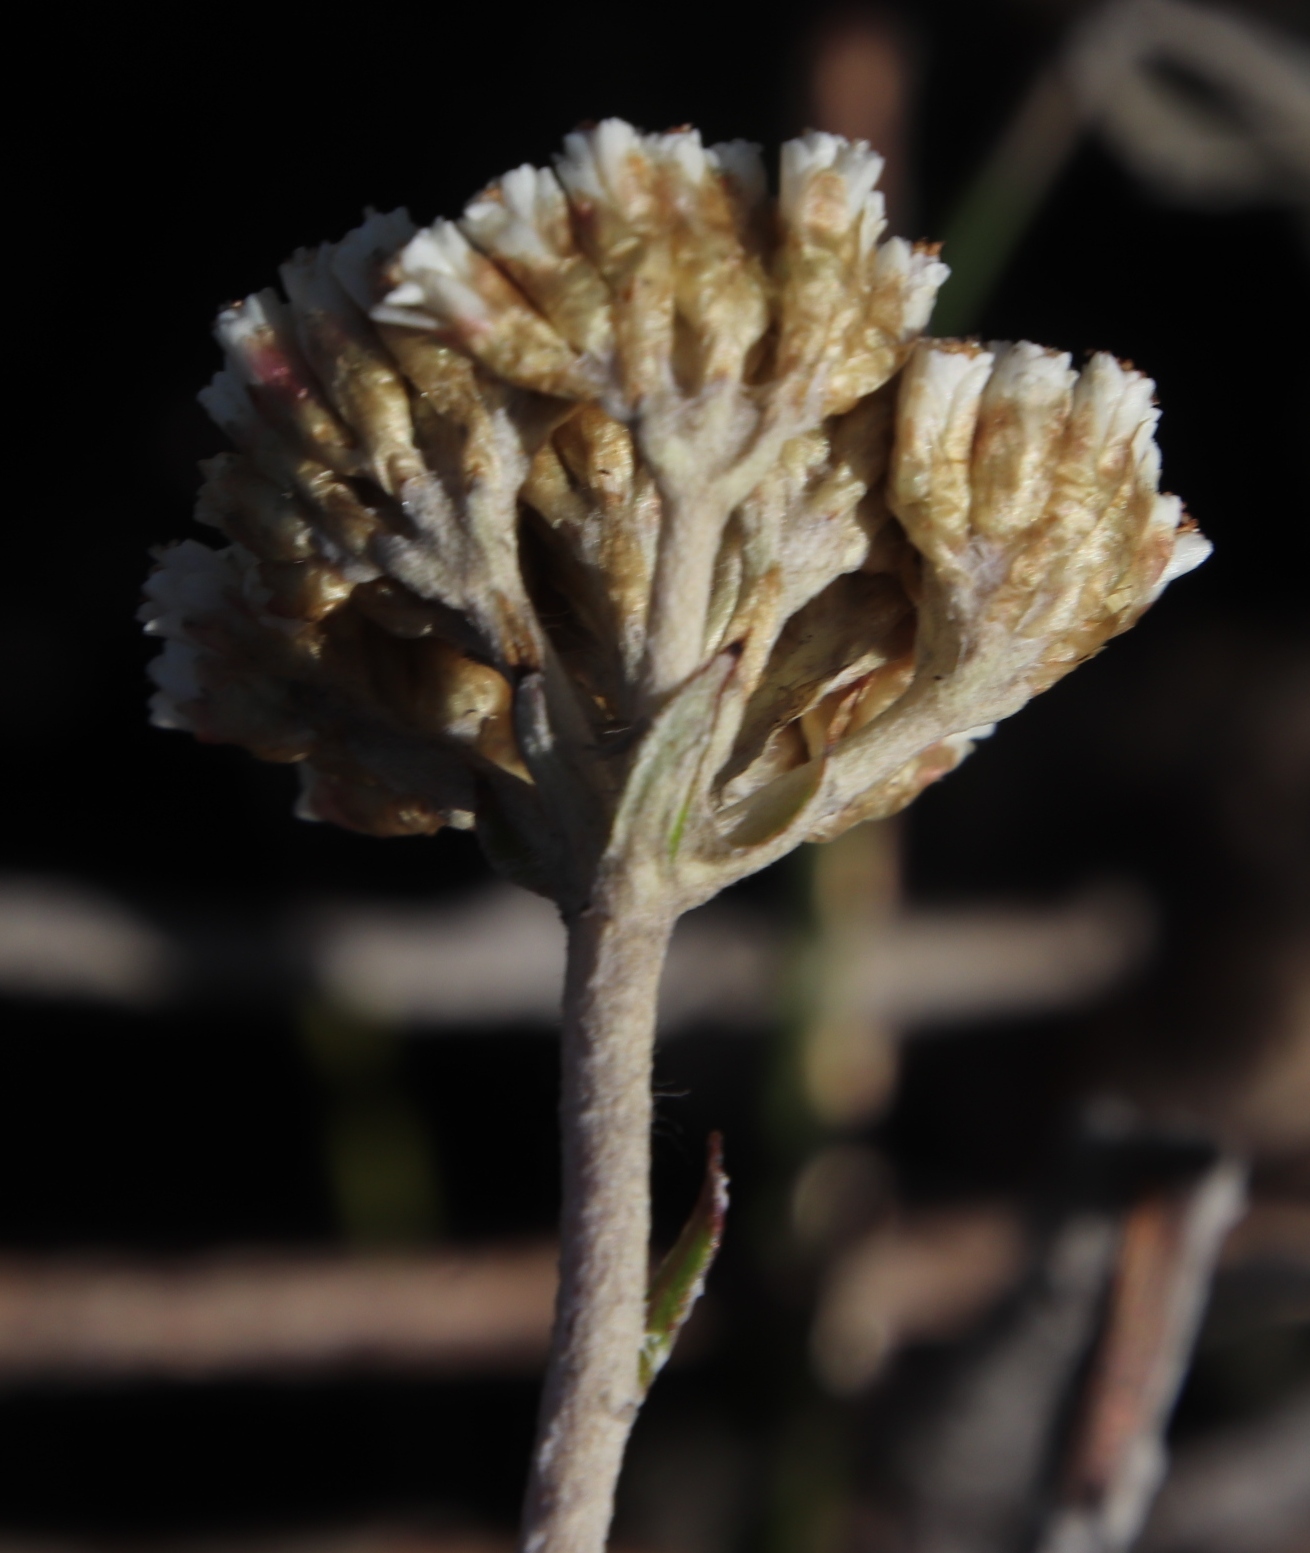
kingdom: Plantae
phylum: Tracheophyta
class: Magnoliopsida
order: Asterales
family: Asteraceae
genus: Anaxeton
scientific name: Anaxeton arborescens
